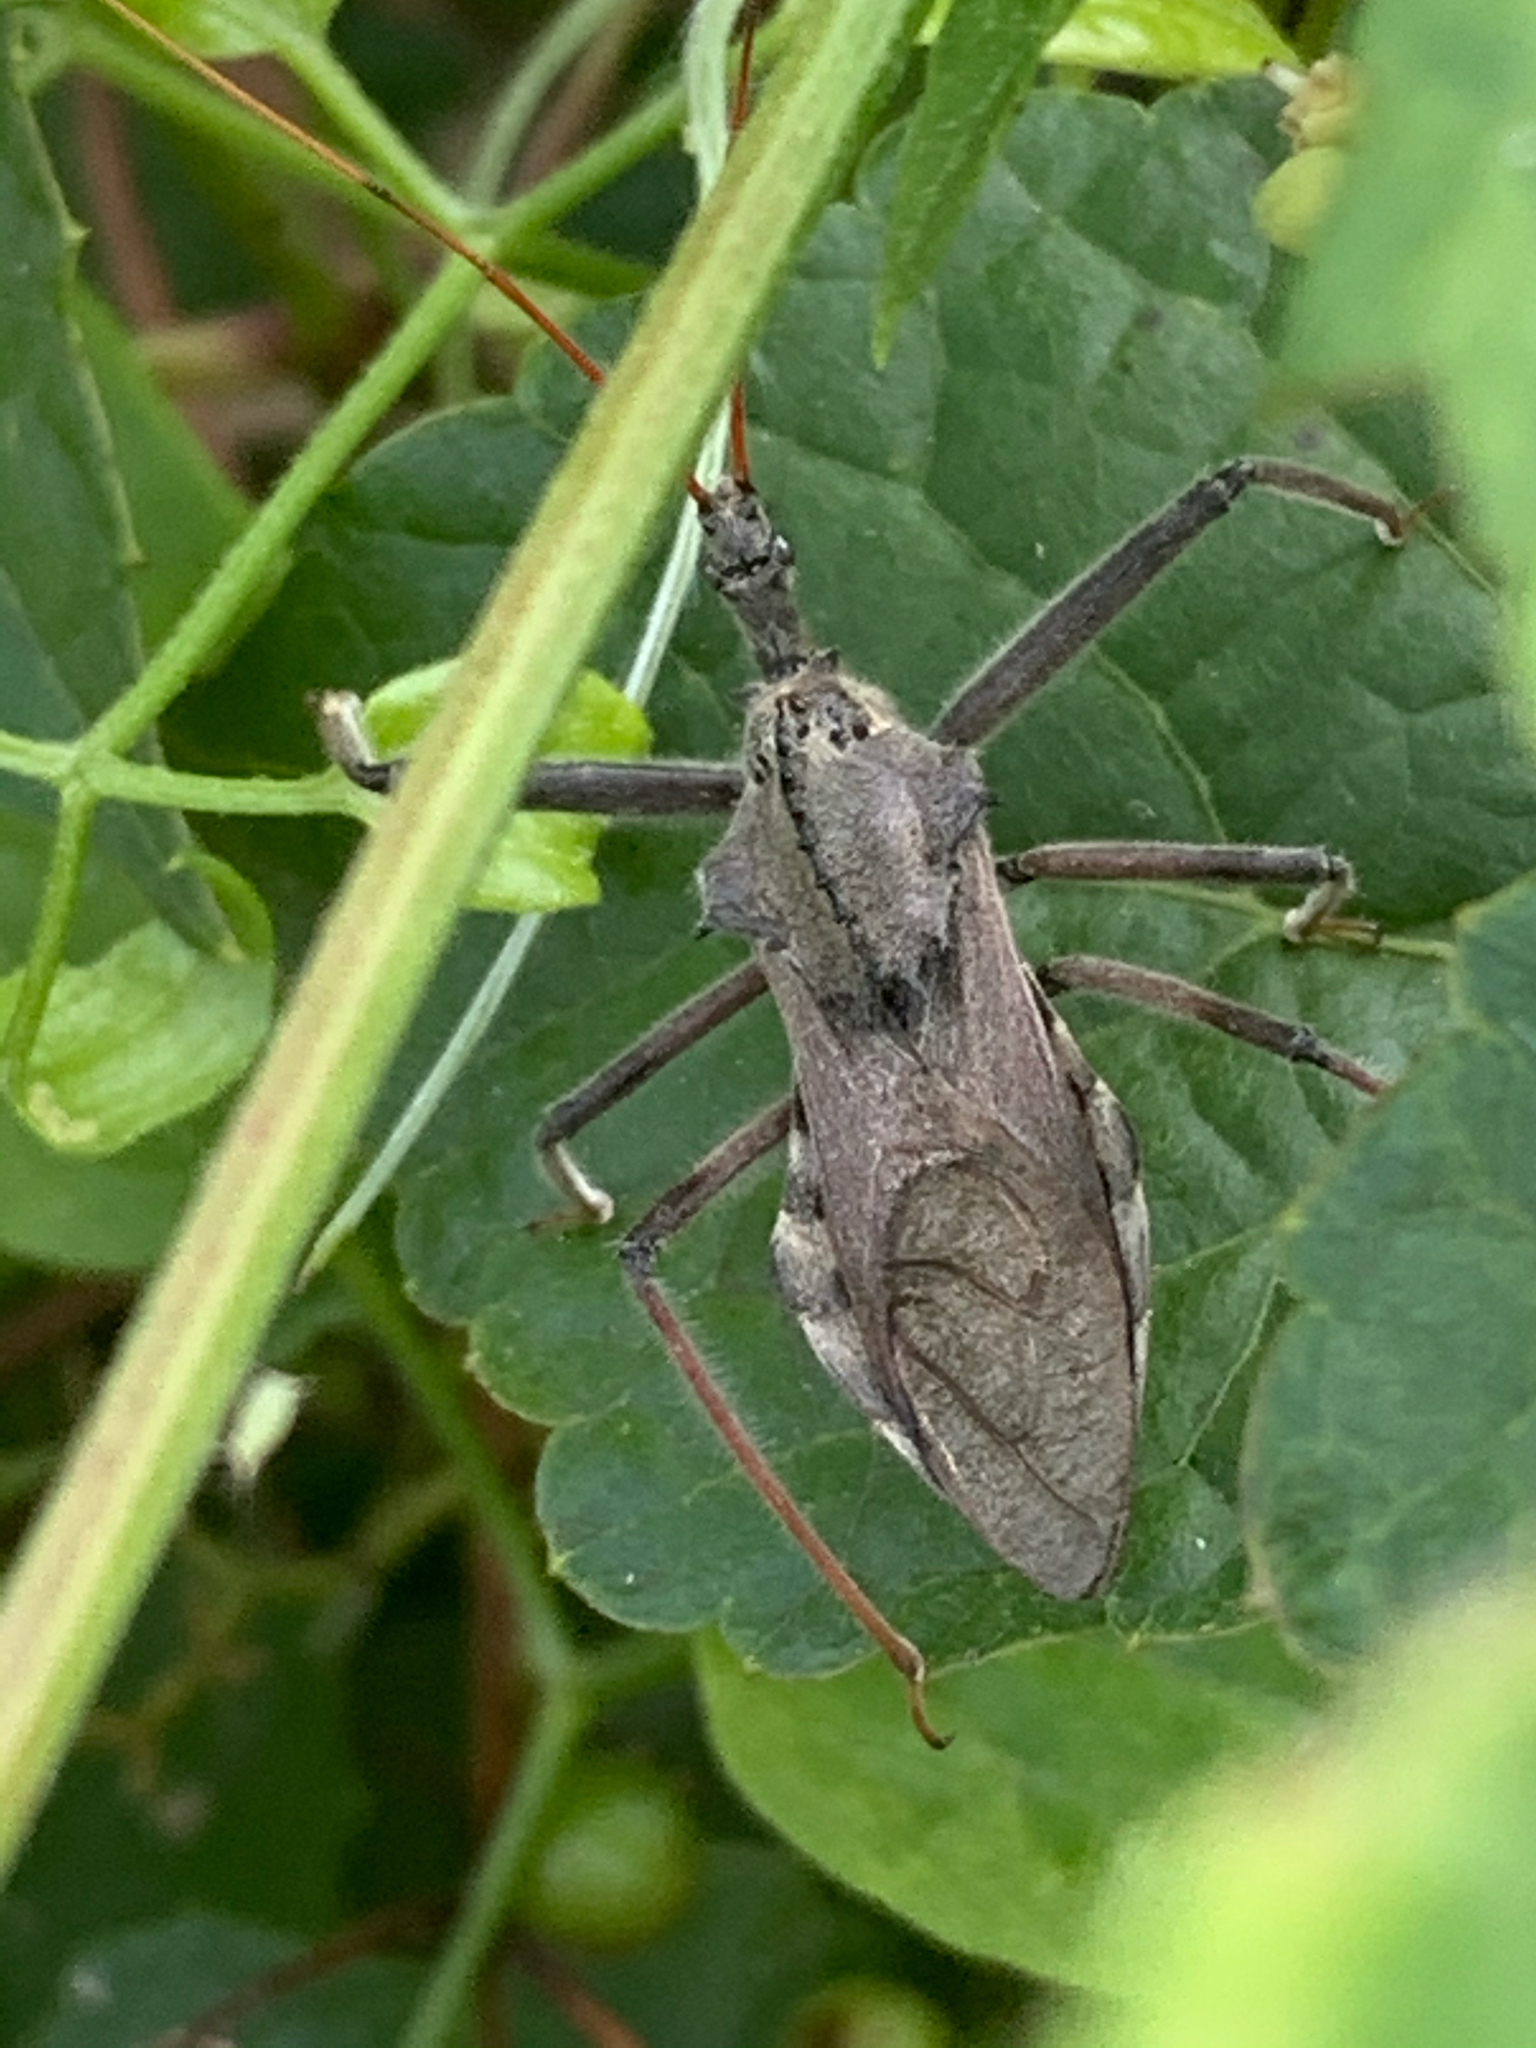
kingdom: Animalia
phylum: Arthropoda
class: Insecta
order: Hemiptera
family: Reduviidae
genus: Arilus
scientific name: Arilus cristatus
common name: North american wheel bug
